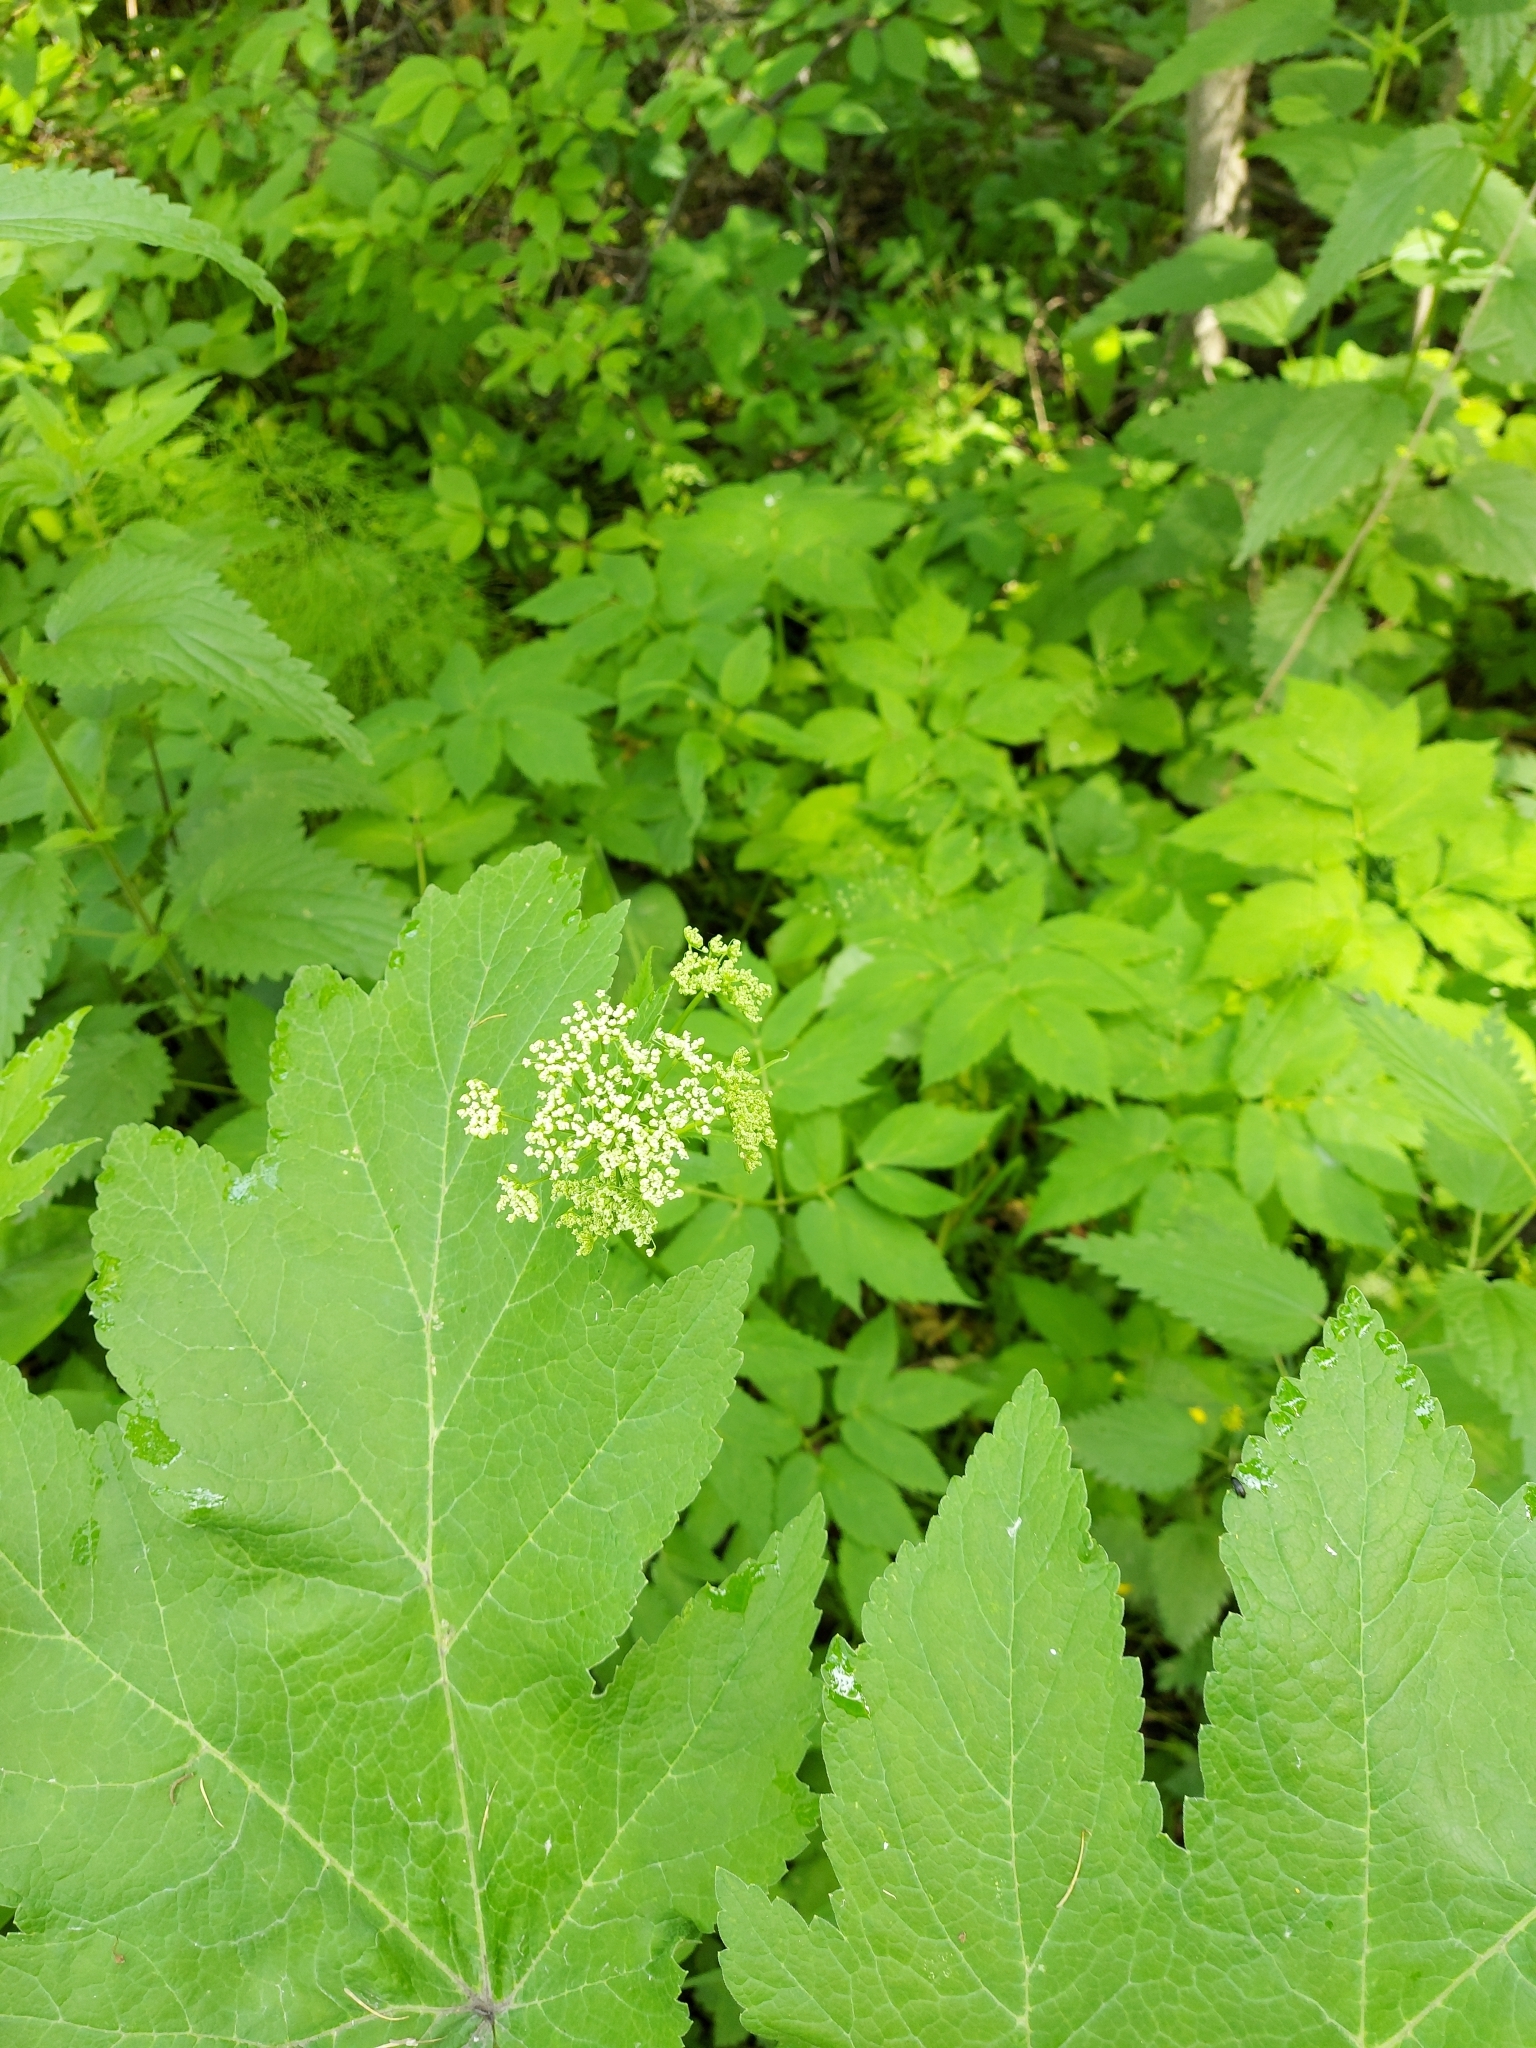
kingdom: Plantae
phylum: Tracheophyta
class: Magnoliopsida
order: Apiales
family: Apiaceae
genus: Heracleum
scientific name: Heracleum dissectum
